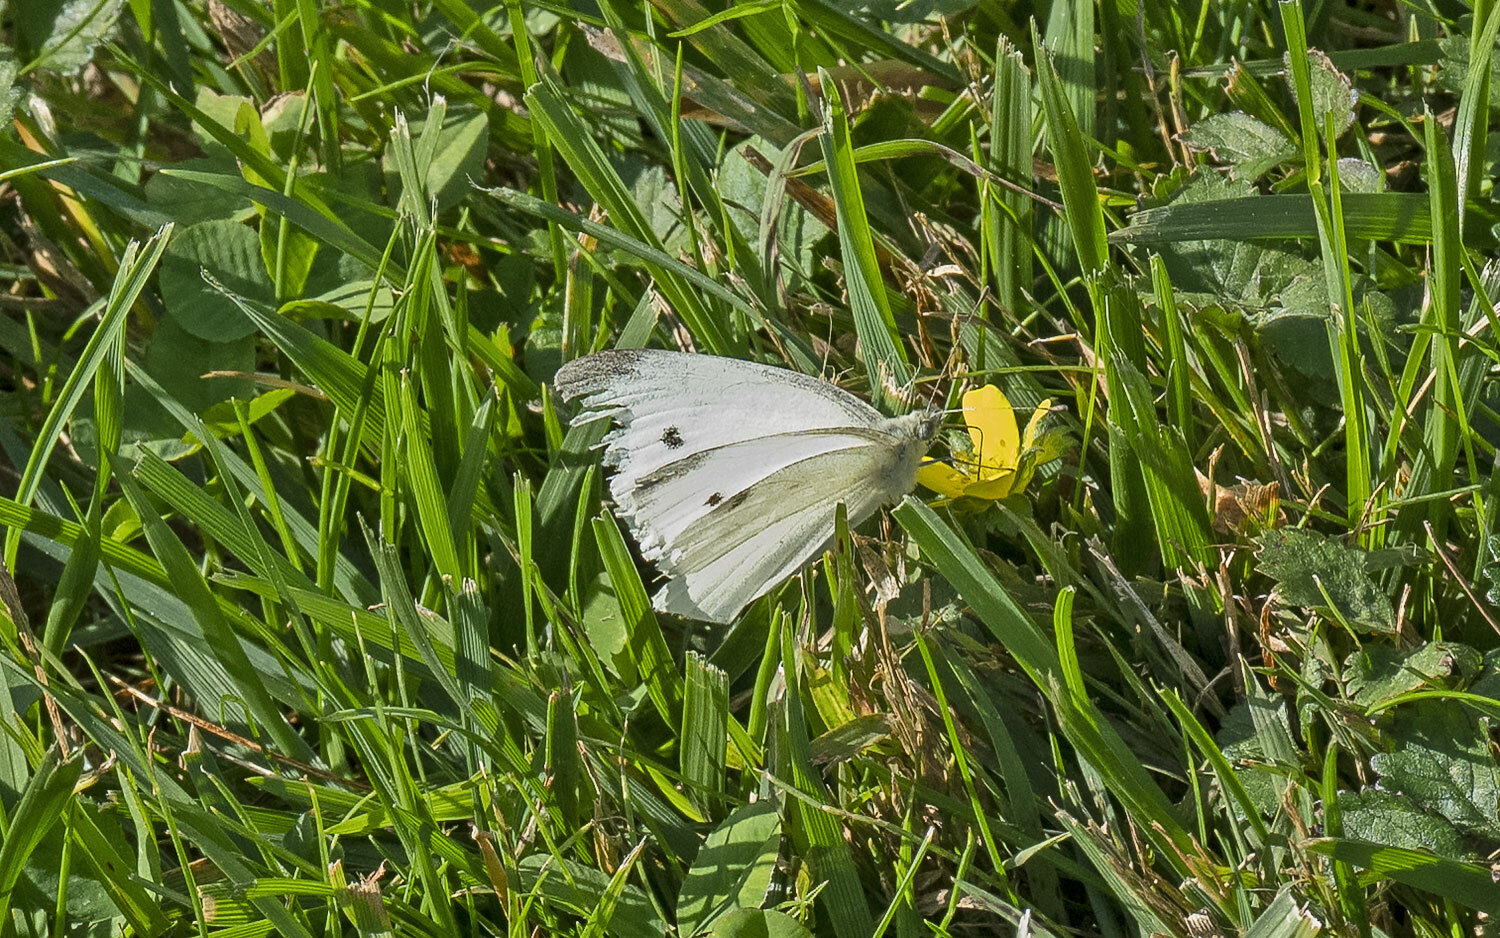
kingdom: Animalia
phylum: Arthropoda
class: Insecta
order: Lepidoptera
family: Pieridae
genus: Pieris
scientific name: Pieris rapae
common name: Small white
